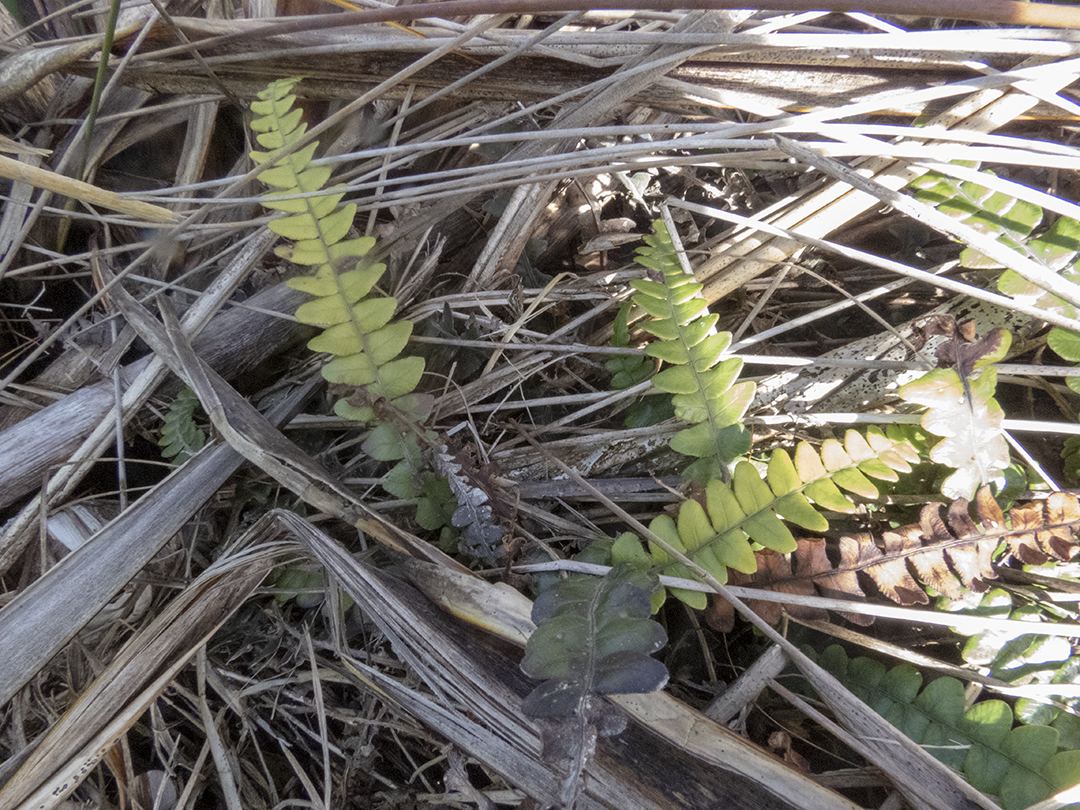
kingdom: Plantae
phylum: Tracheophyta
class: Polypodiopsida
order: Polypodiales
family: Blechnaceae
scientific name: Blechnaceae
